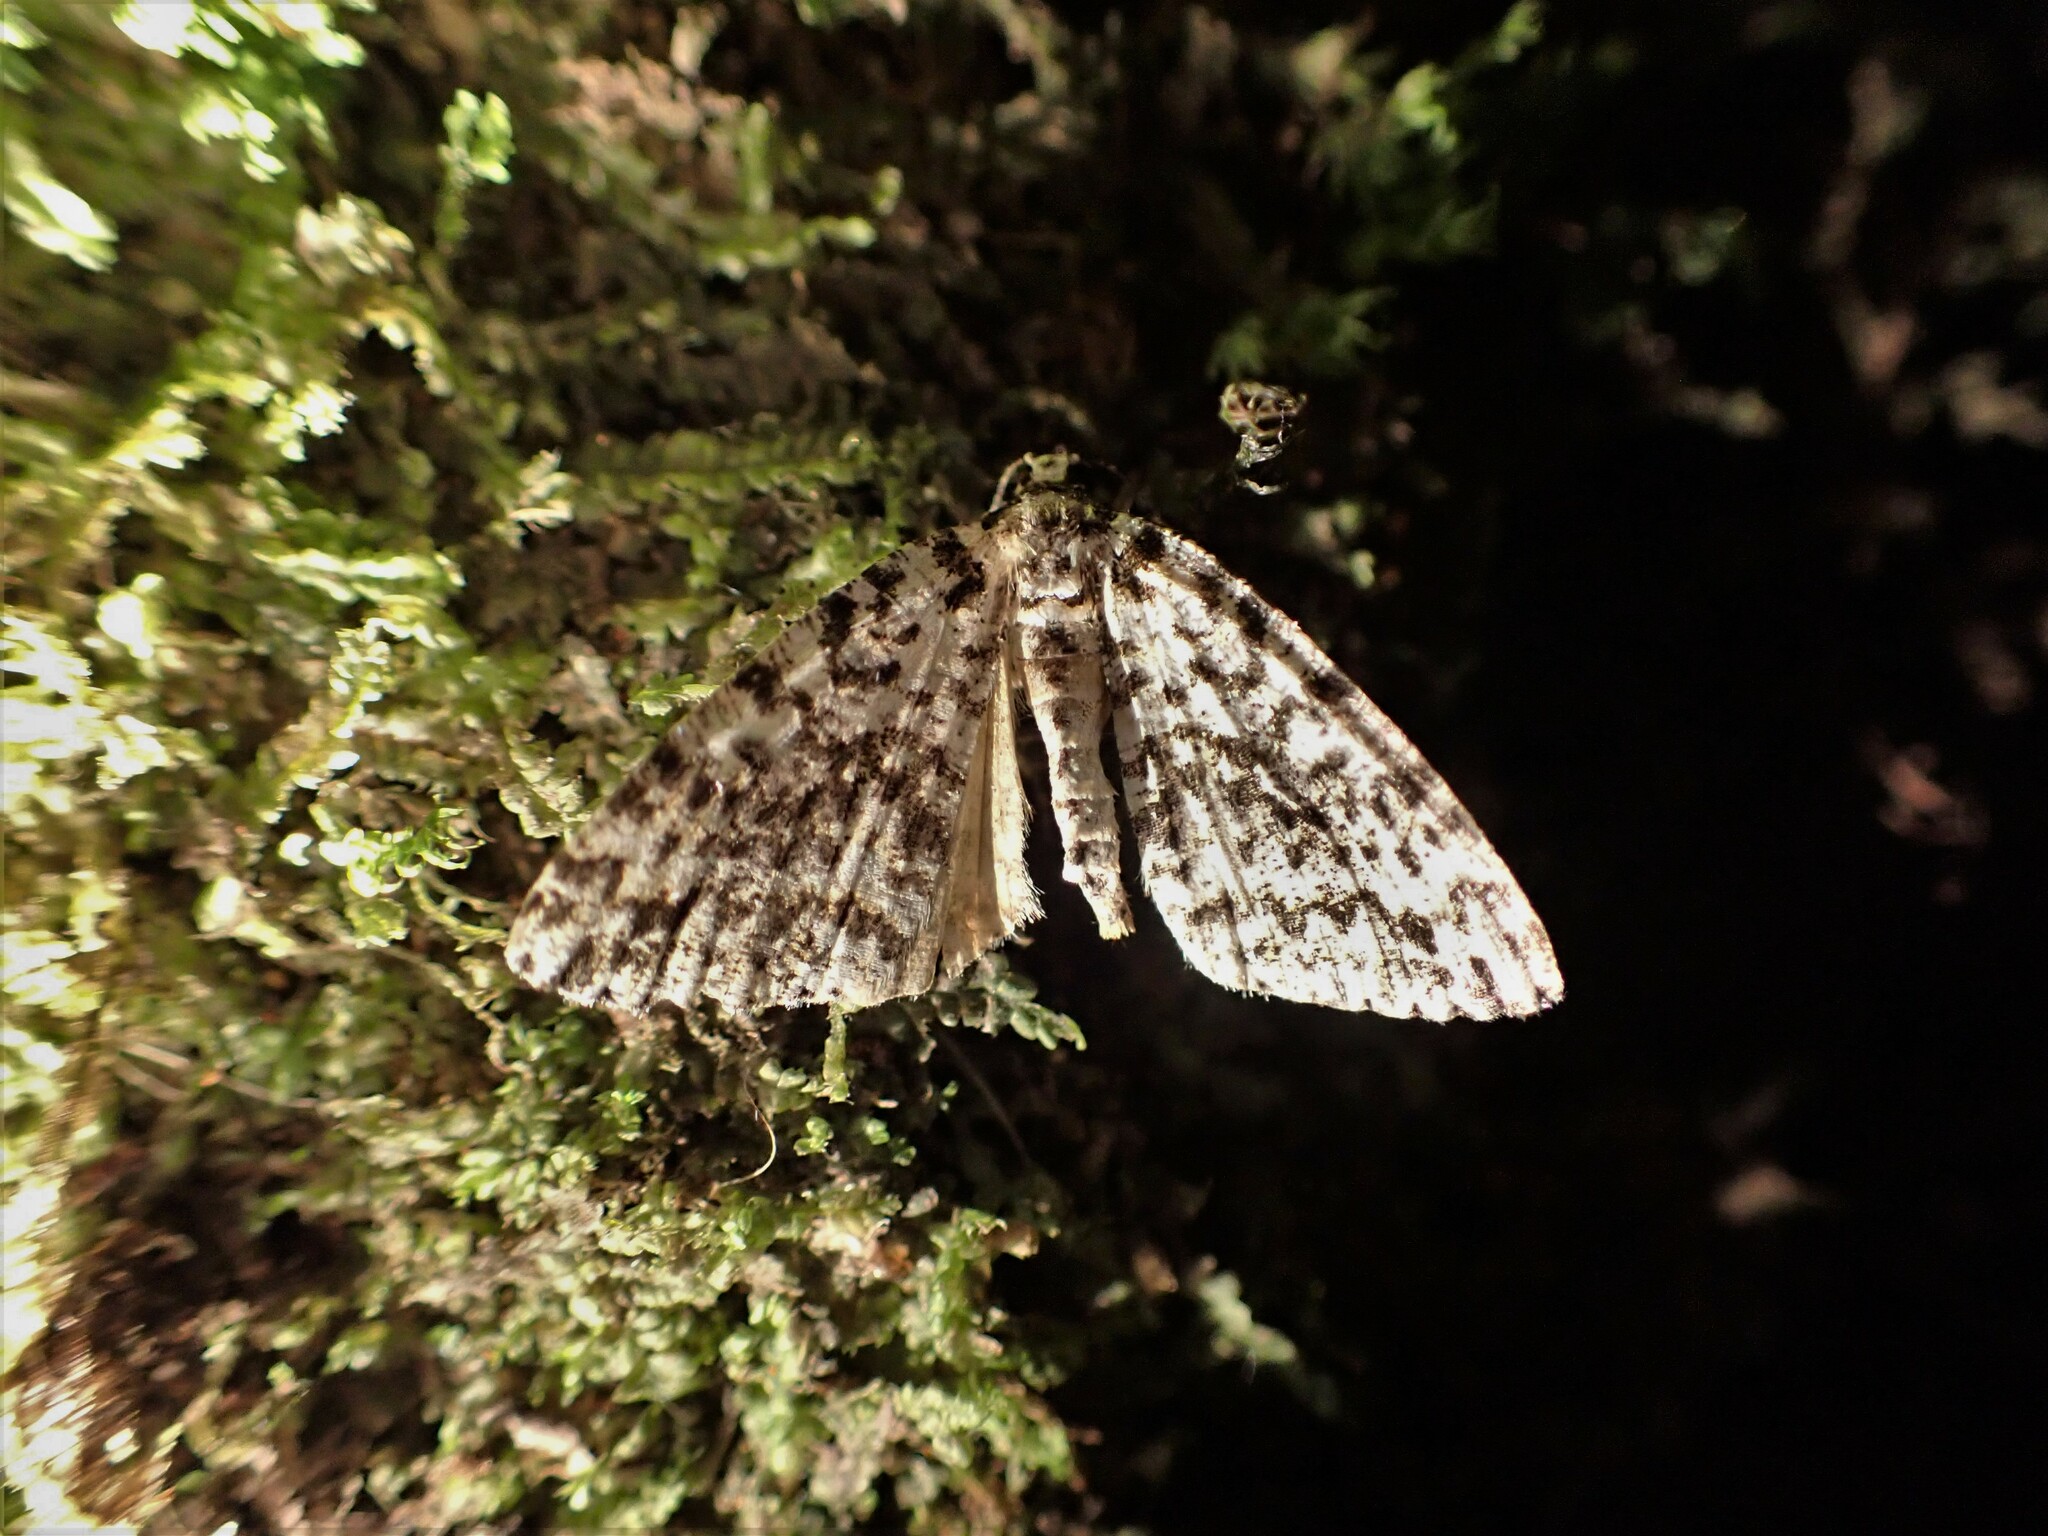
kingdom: Animalia
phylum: Arthropoda
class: Insecta
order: Lepidoptera
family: Geometridae
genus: Pseudocoremia
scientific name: Pseudocoremia monacha
